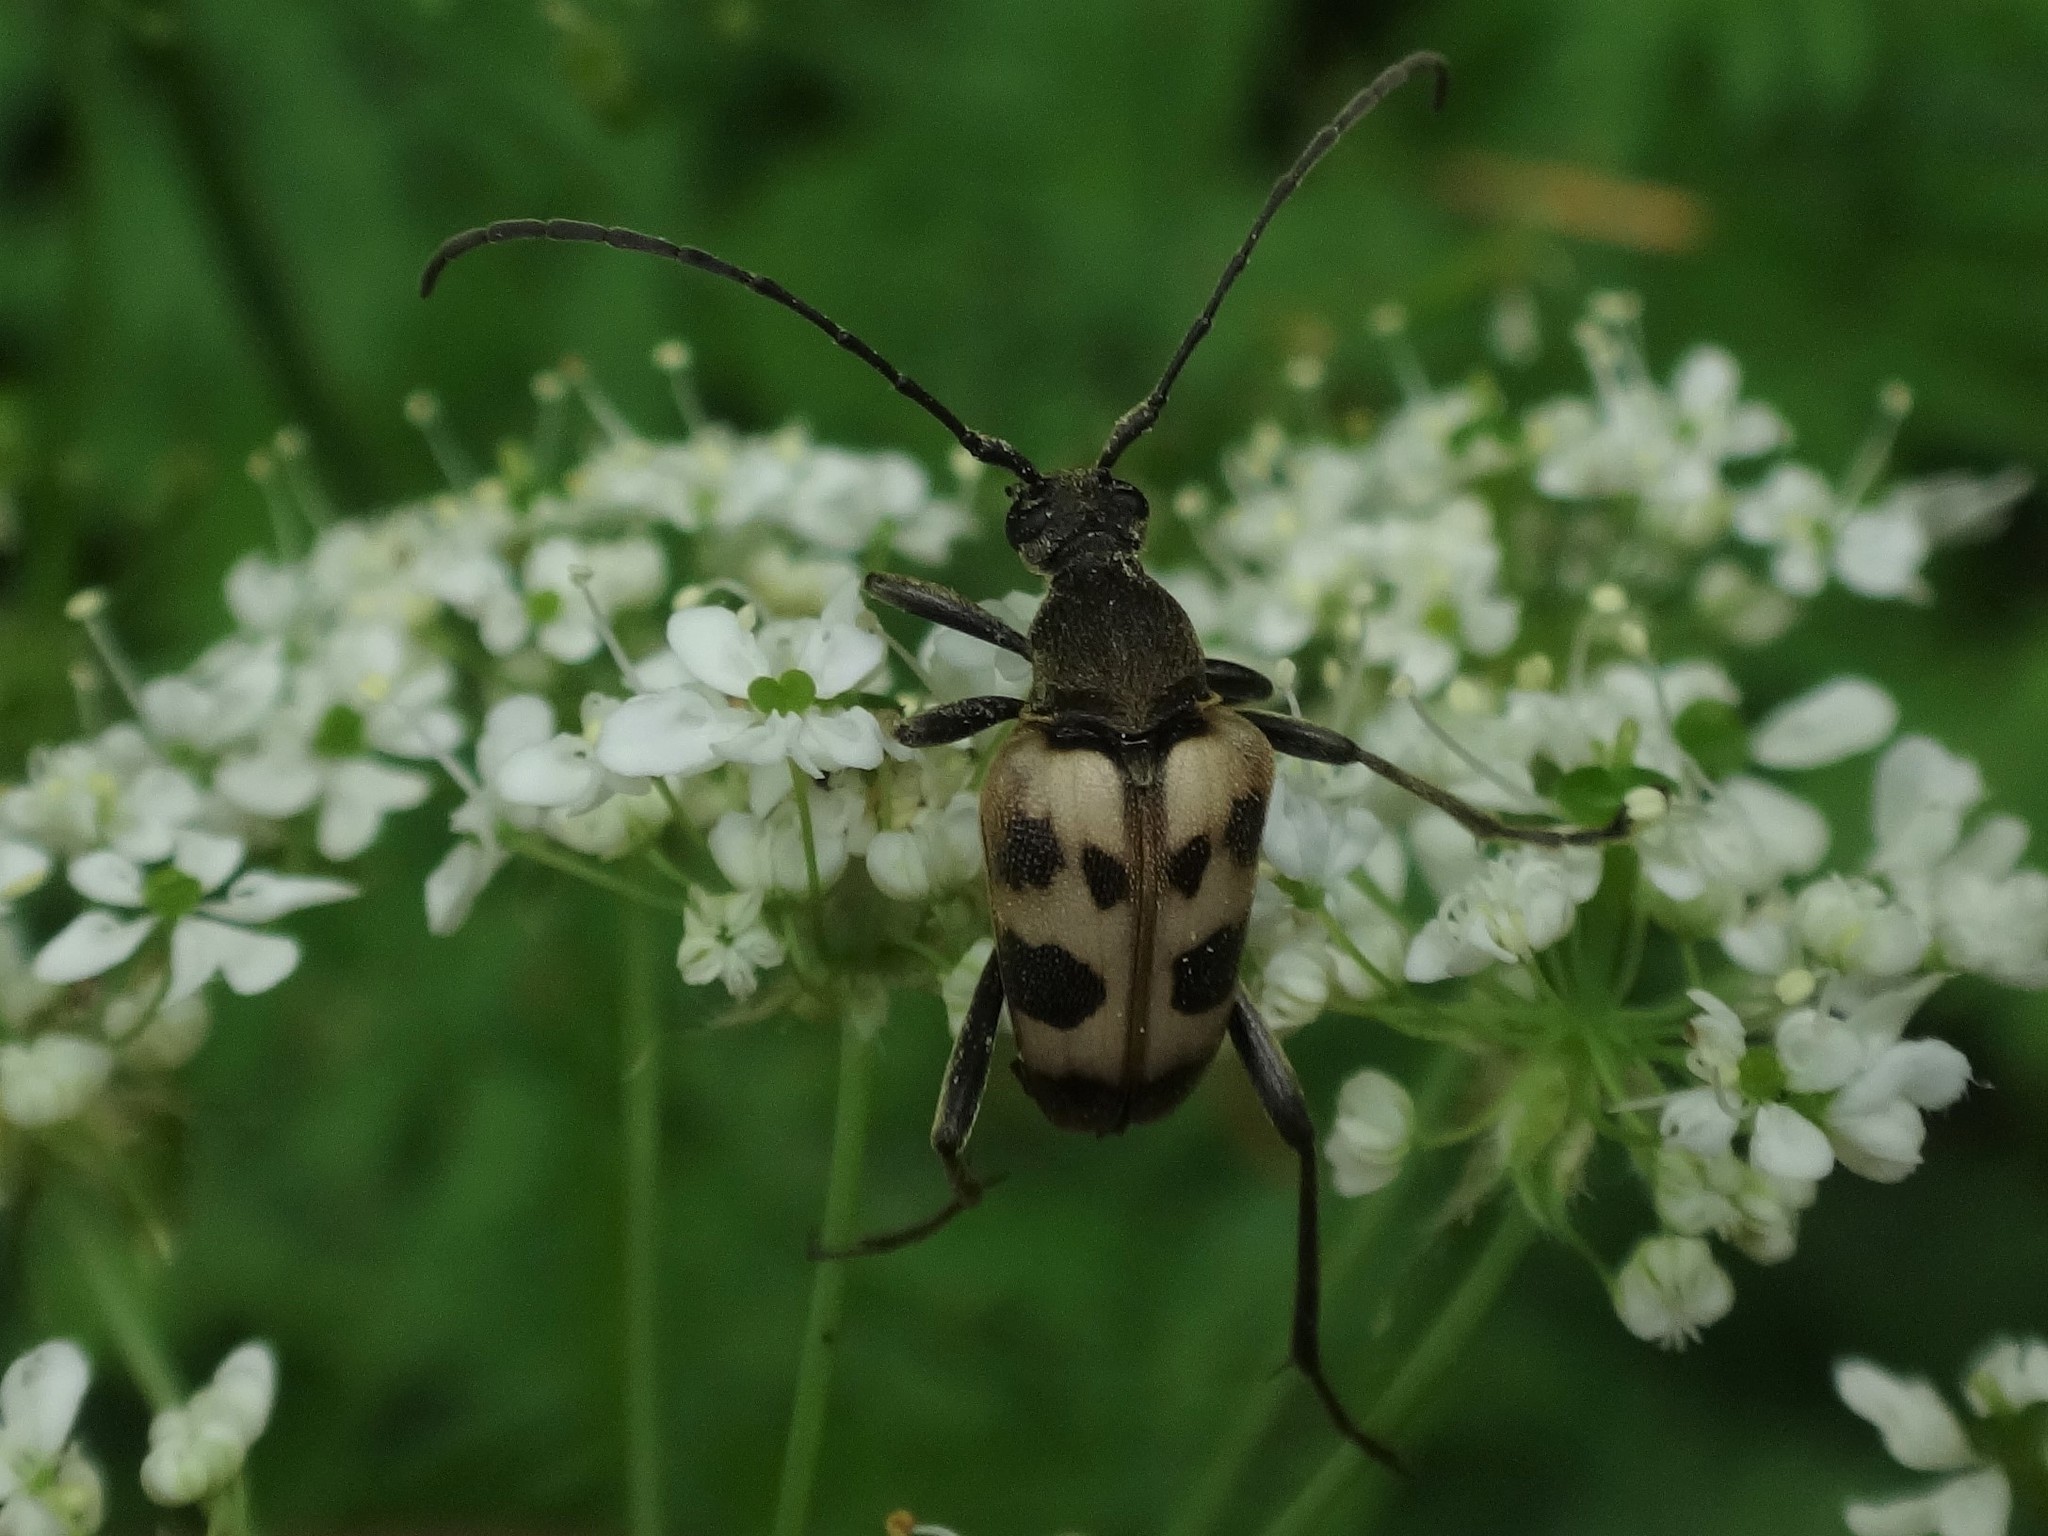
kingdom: Animalia
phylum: Arthropoda
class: Insecta
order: Coleoptera
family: Cerambycidae
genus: Pachytodes
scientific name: Pachytodes cerambyciformis
